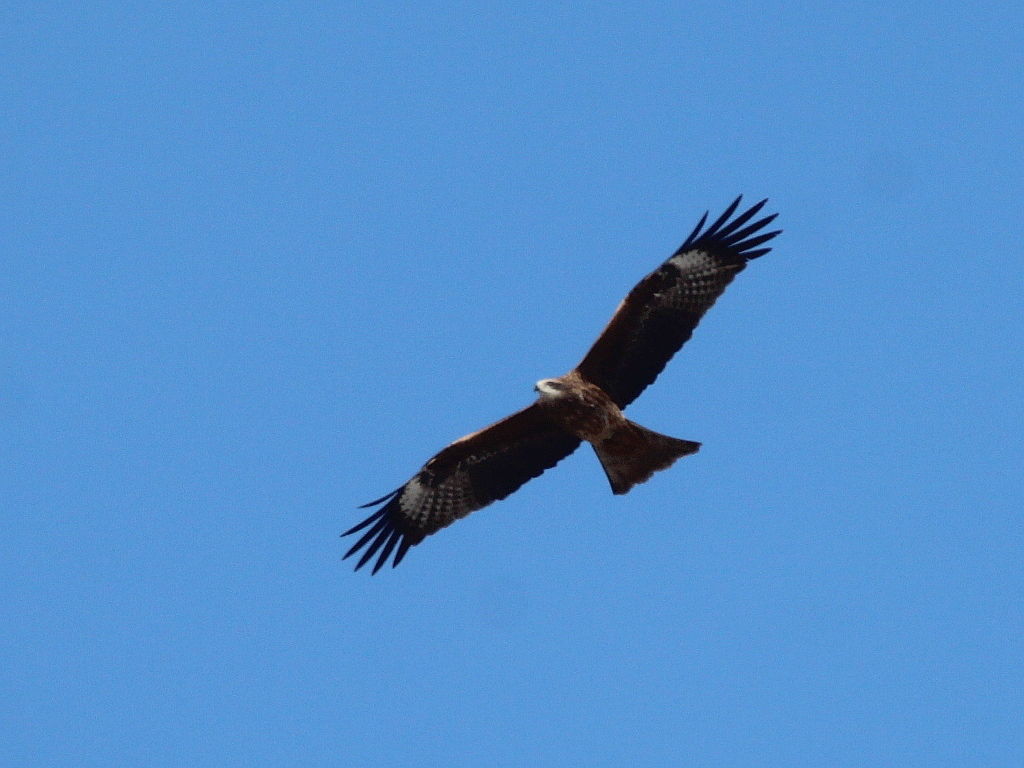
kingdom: Animalia
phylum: Chordata
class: Aves
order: Accipitriformes
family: Accipitridae
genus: Milvus
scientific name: Milvus migrans
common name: Black kite
